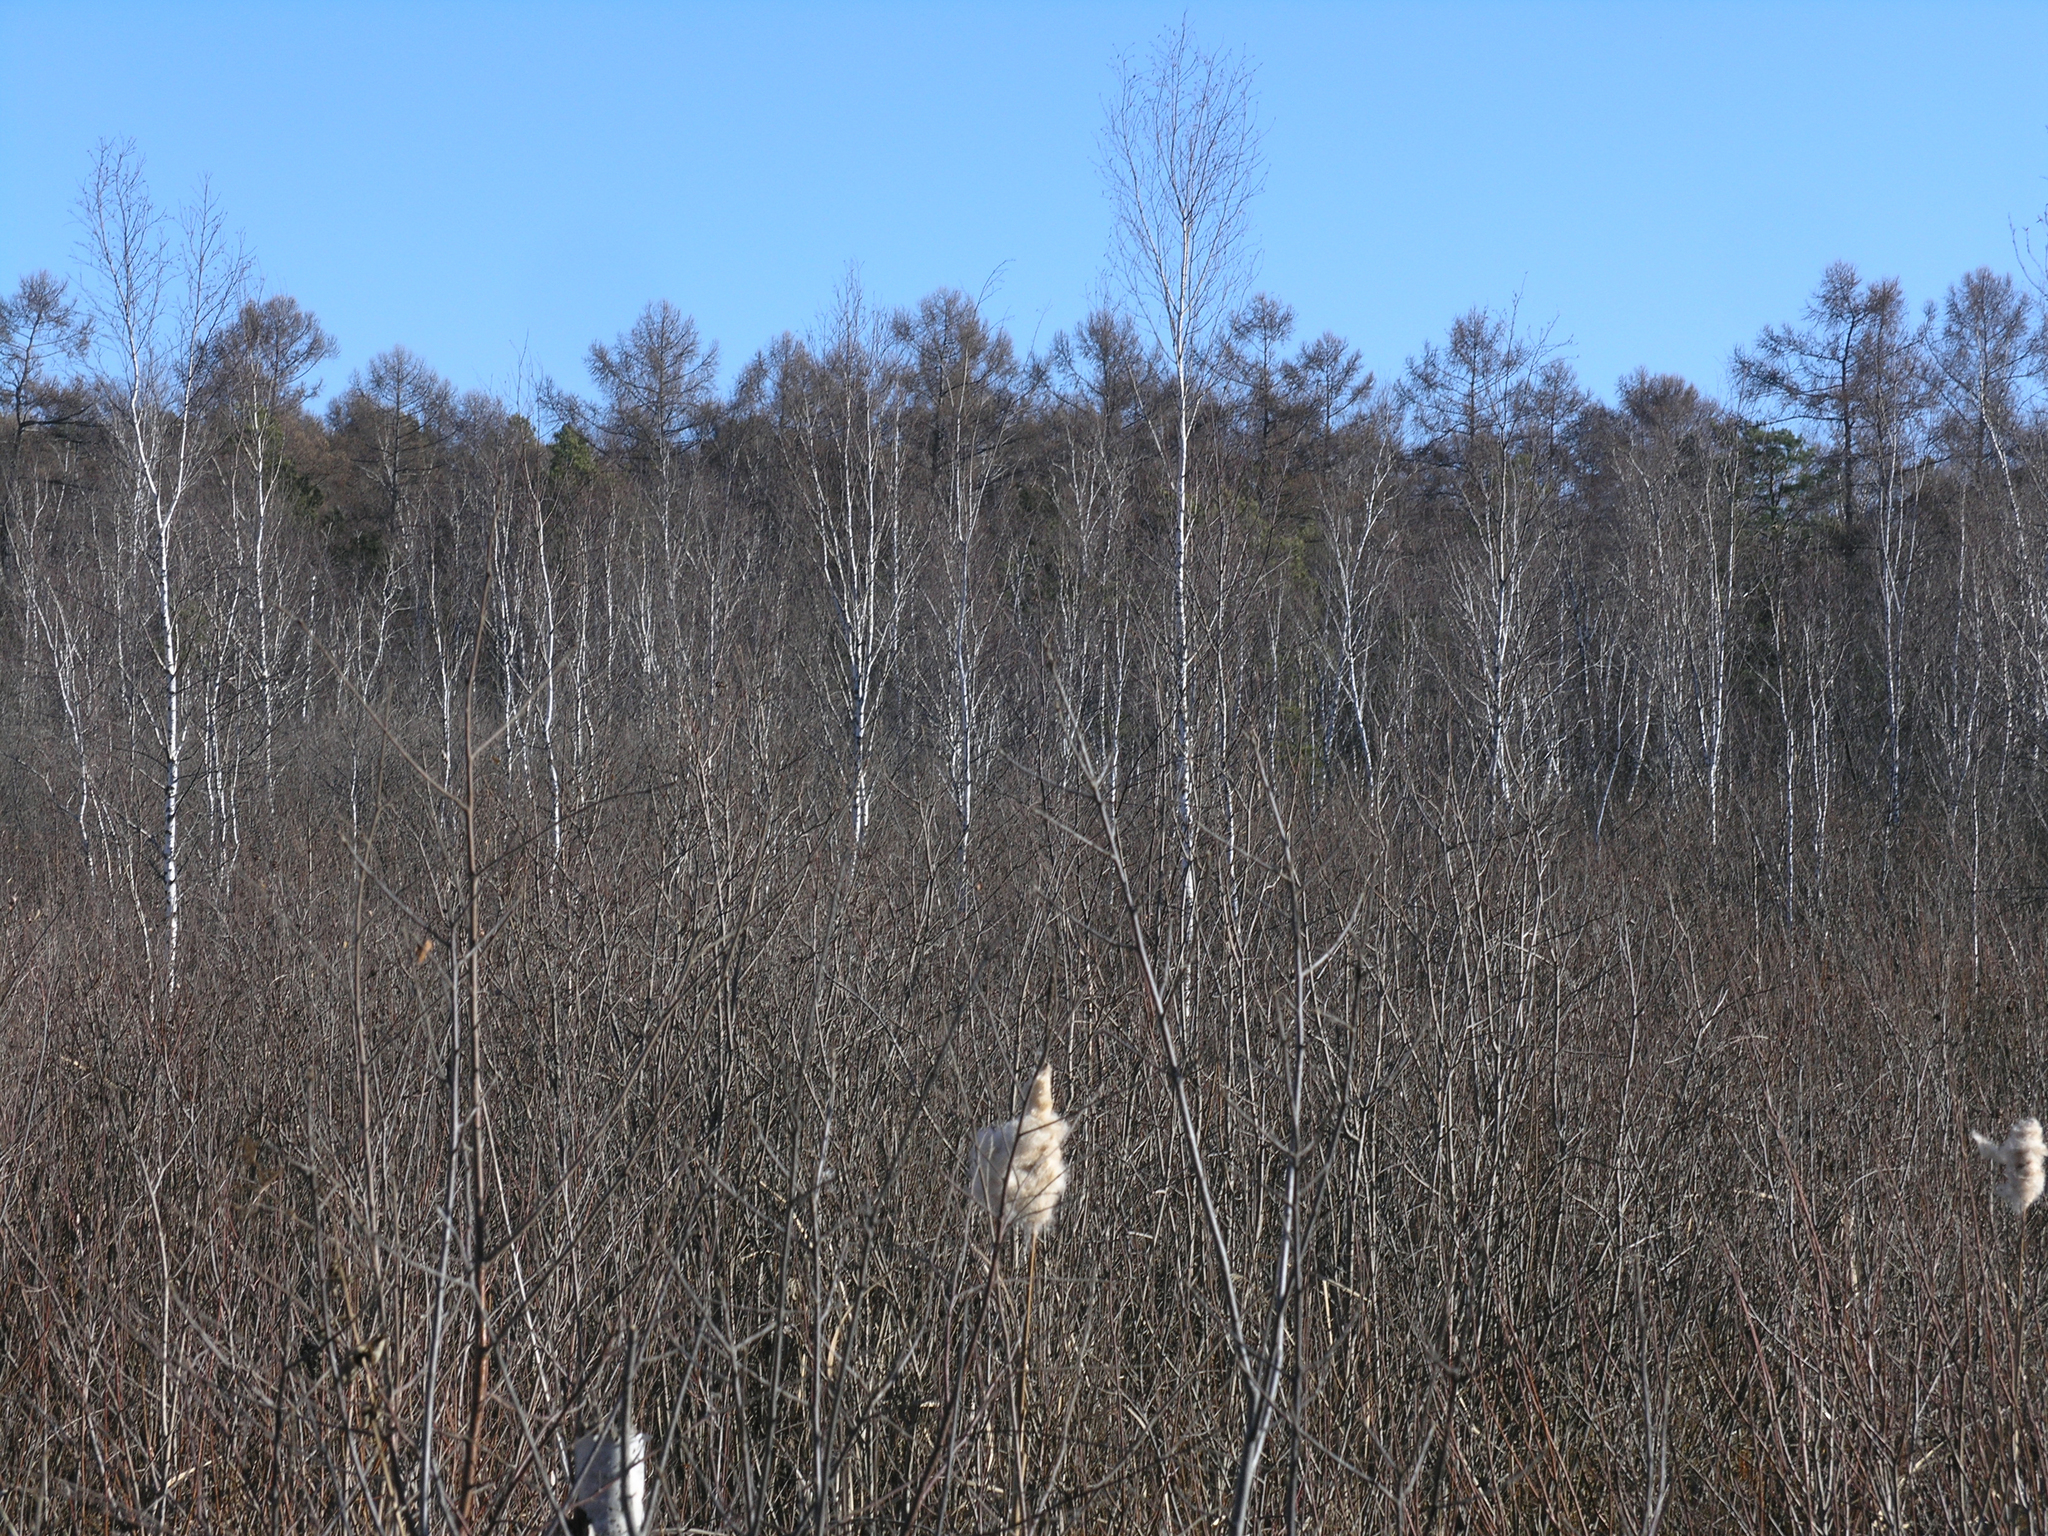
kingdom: Plantae
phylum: Tracheophyta
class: Pinopsida
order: Pinales
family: Pinaceae
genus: Larix
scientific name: Larix sibirica
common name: Siberian larch
